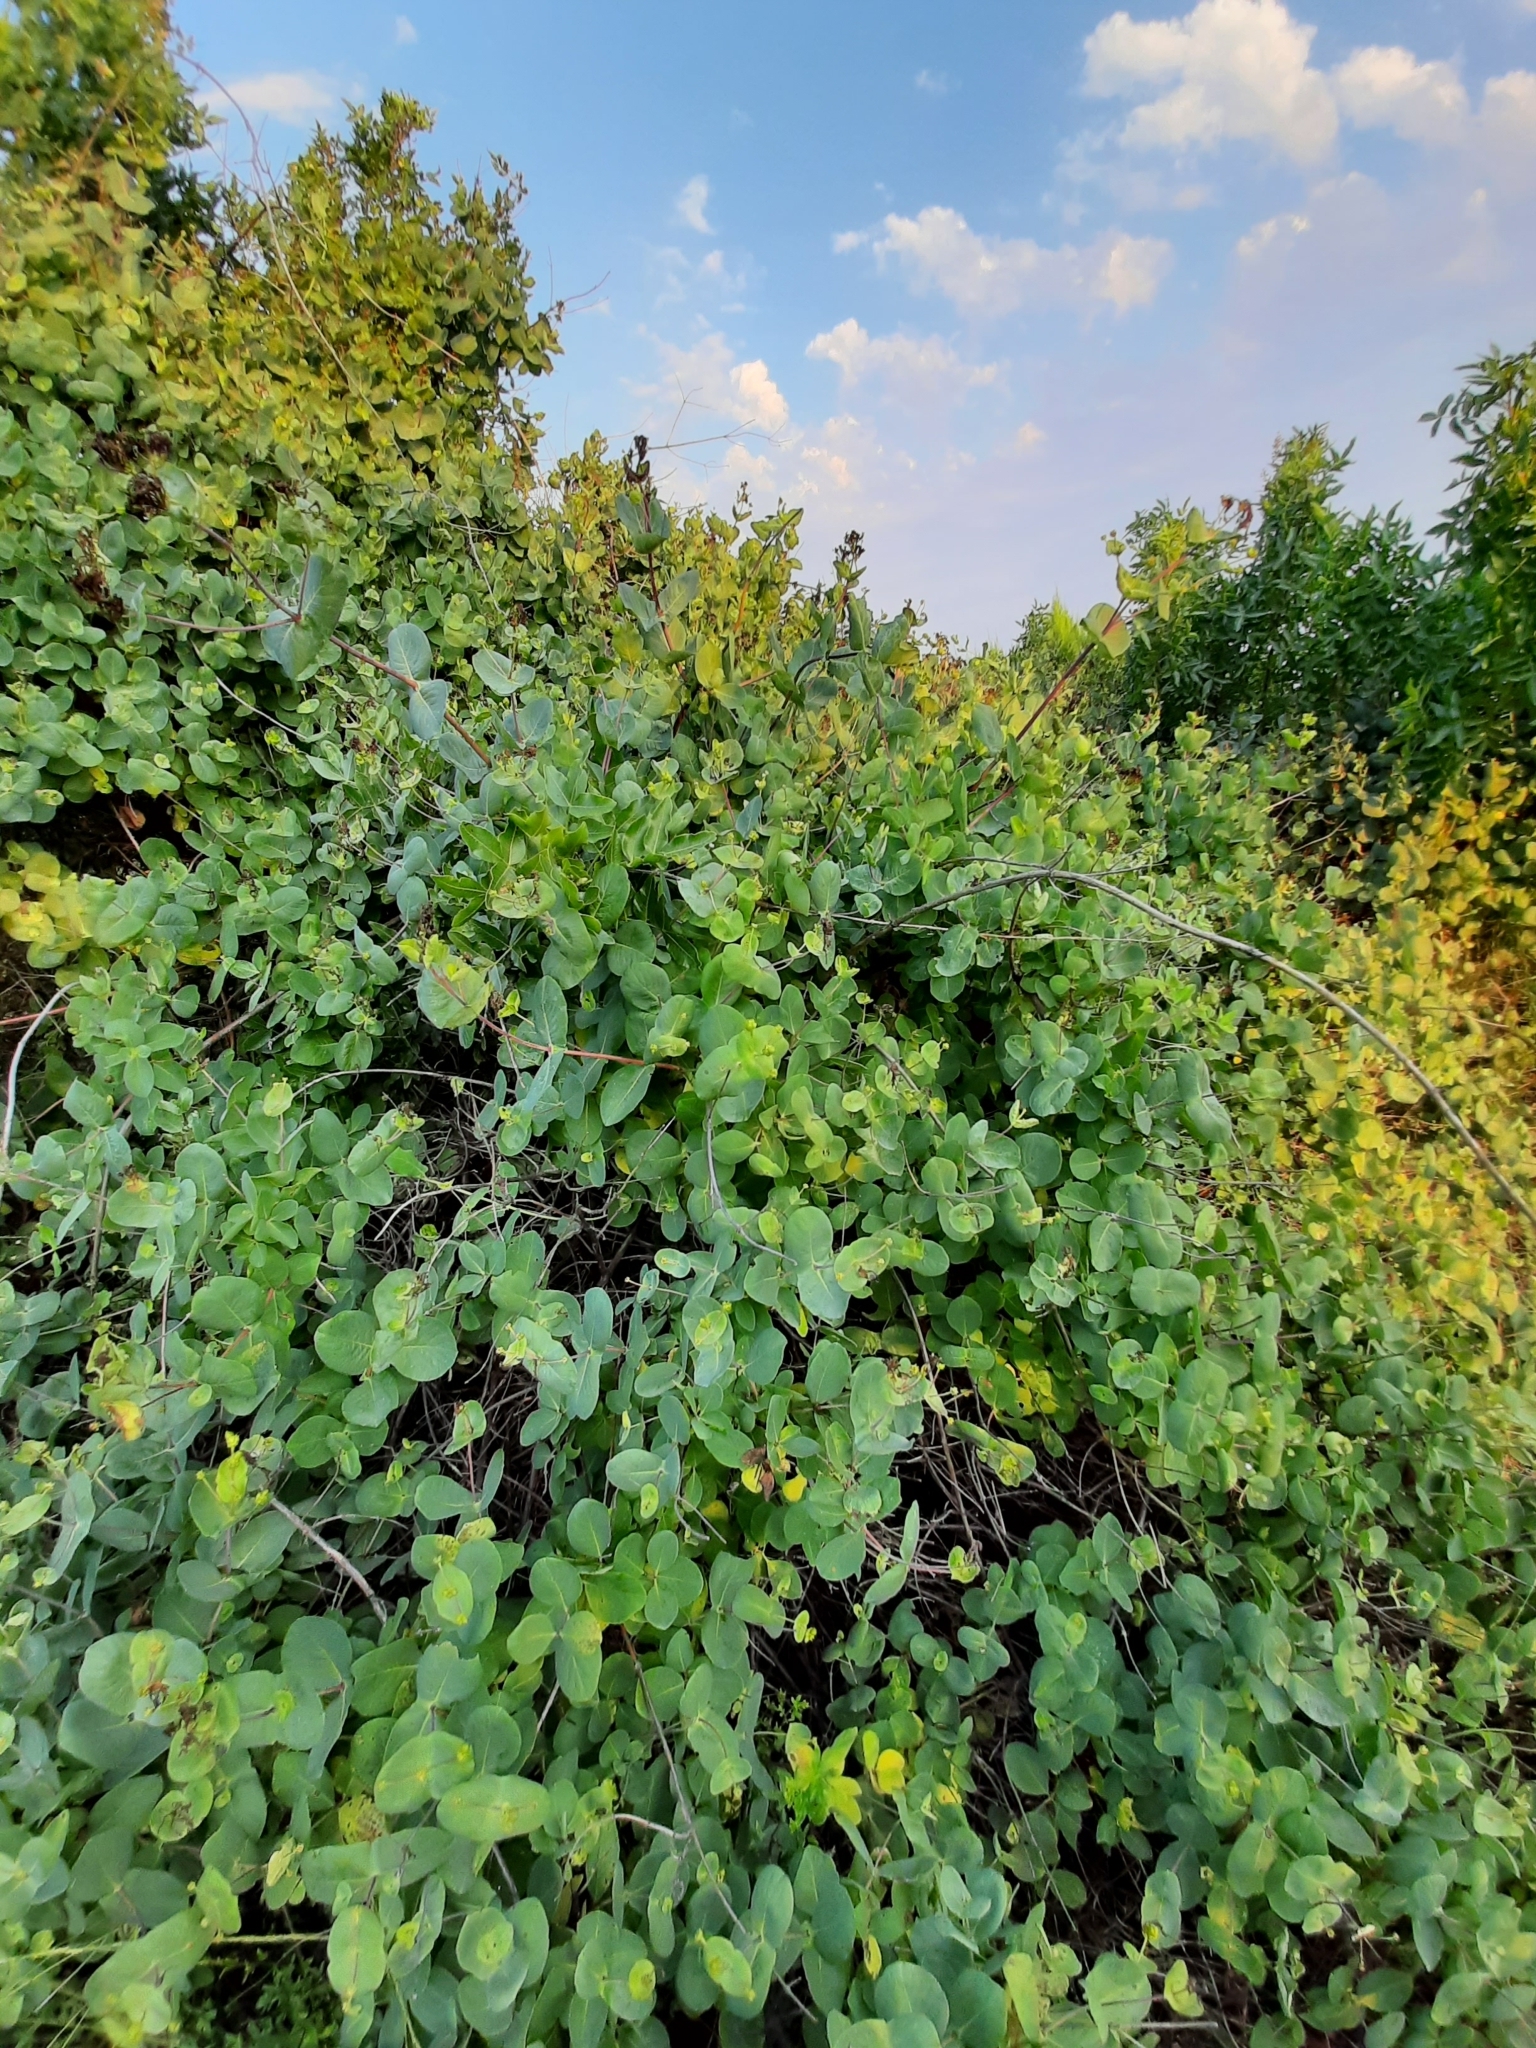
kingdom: Plantae
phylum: Tracheophyta
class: Magnoliopsida
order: Dipsacales
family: Caprifoliaceae
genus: Lonicera
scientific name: Lonicera etrusca
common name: Etruscan honeysuckle
